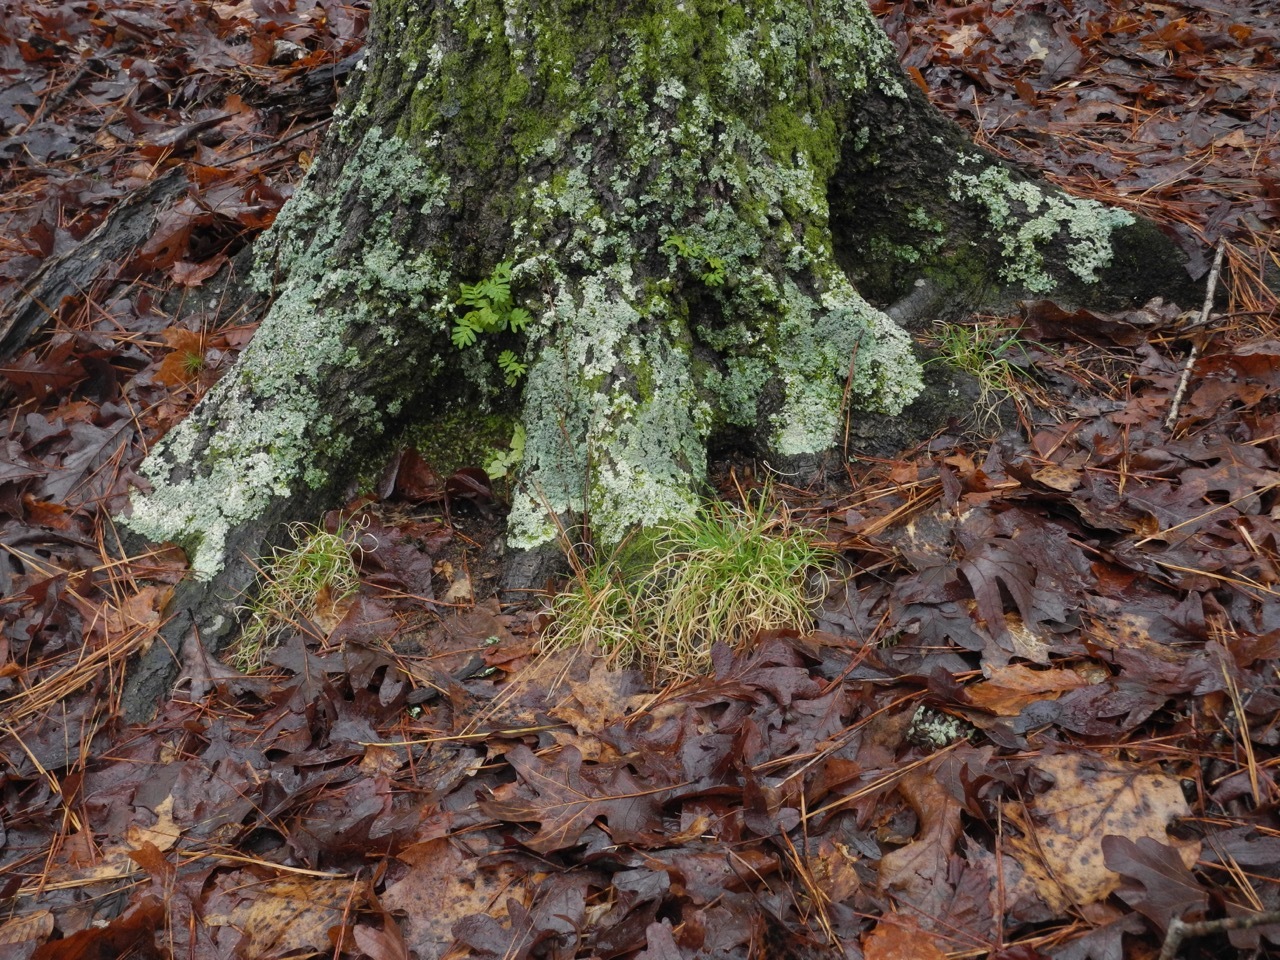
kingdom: Plantae
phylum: Tracheophyta
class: Polypodiopsida
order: Polypodiales
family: Dryopteridaceae
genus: Polystichum
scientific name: Polystichum acrostichoides
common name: Christmas fern
